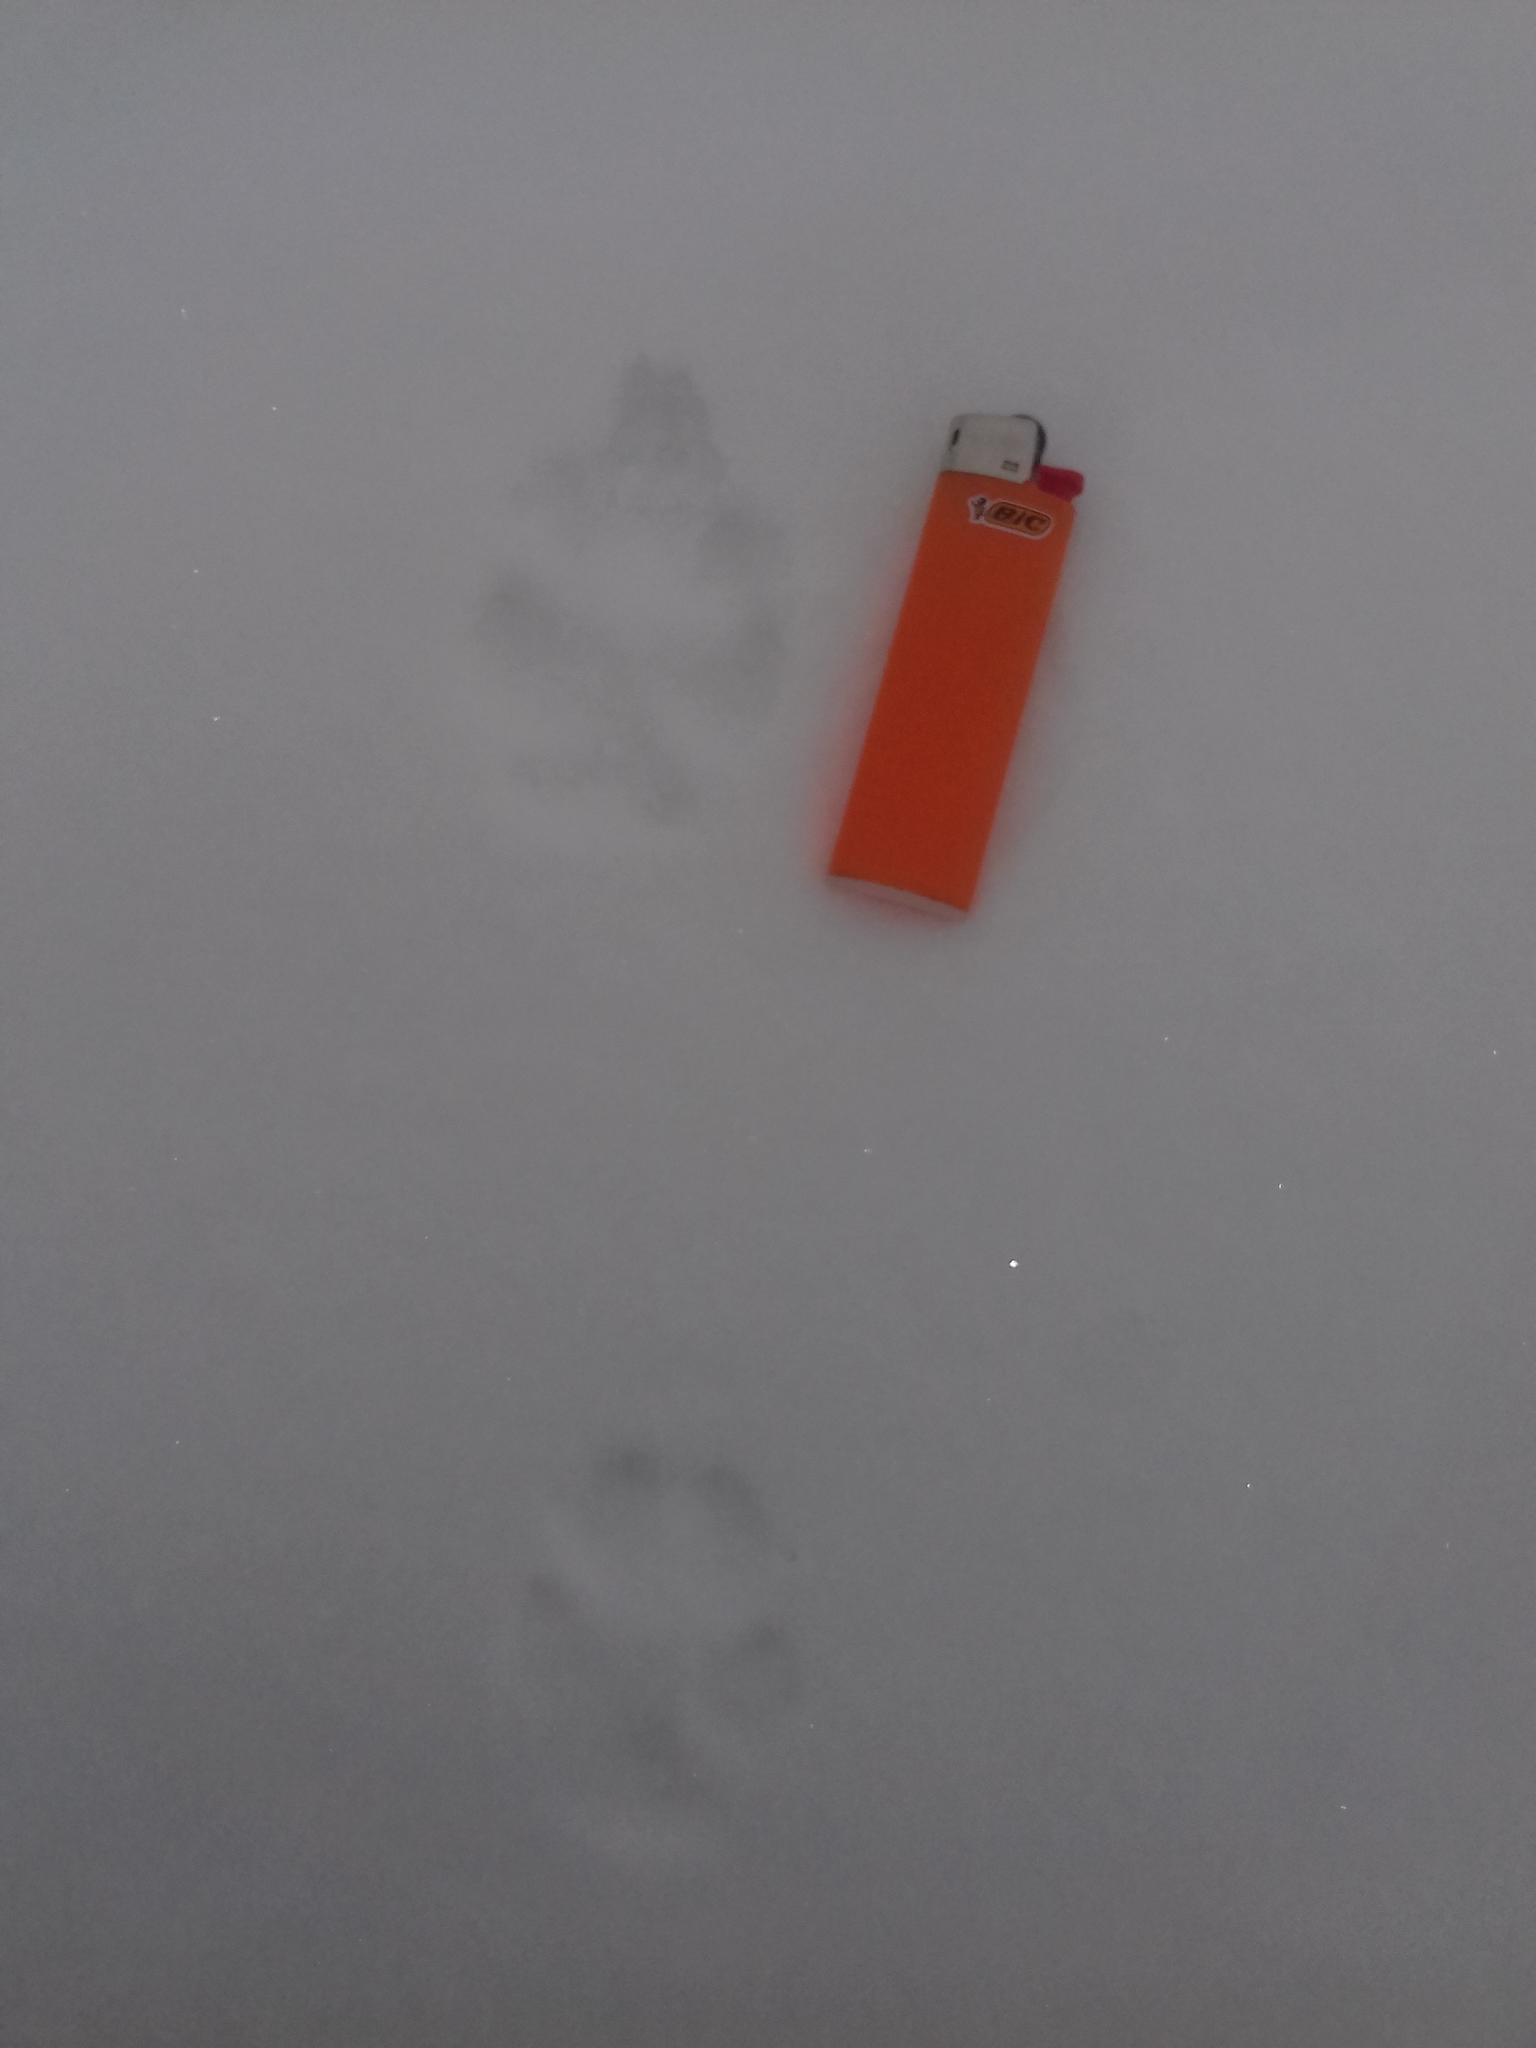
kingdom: Animalia
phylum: Chordata
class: Mammalia
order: Carnivora
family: Canidae
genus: Vulpes
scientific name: Vulpes vulpes
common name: Red fox
